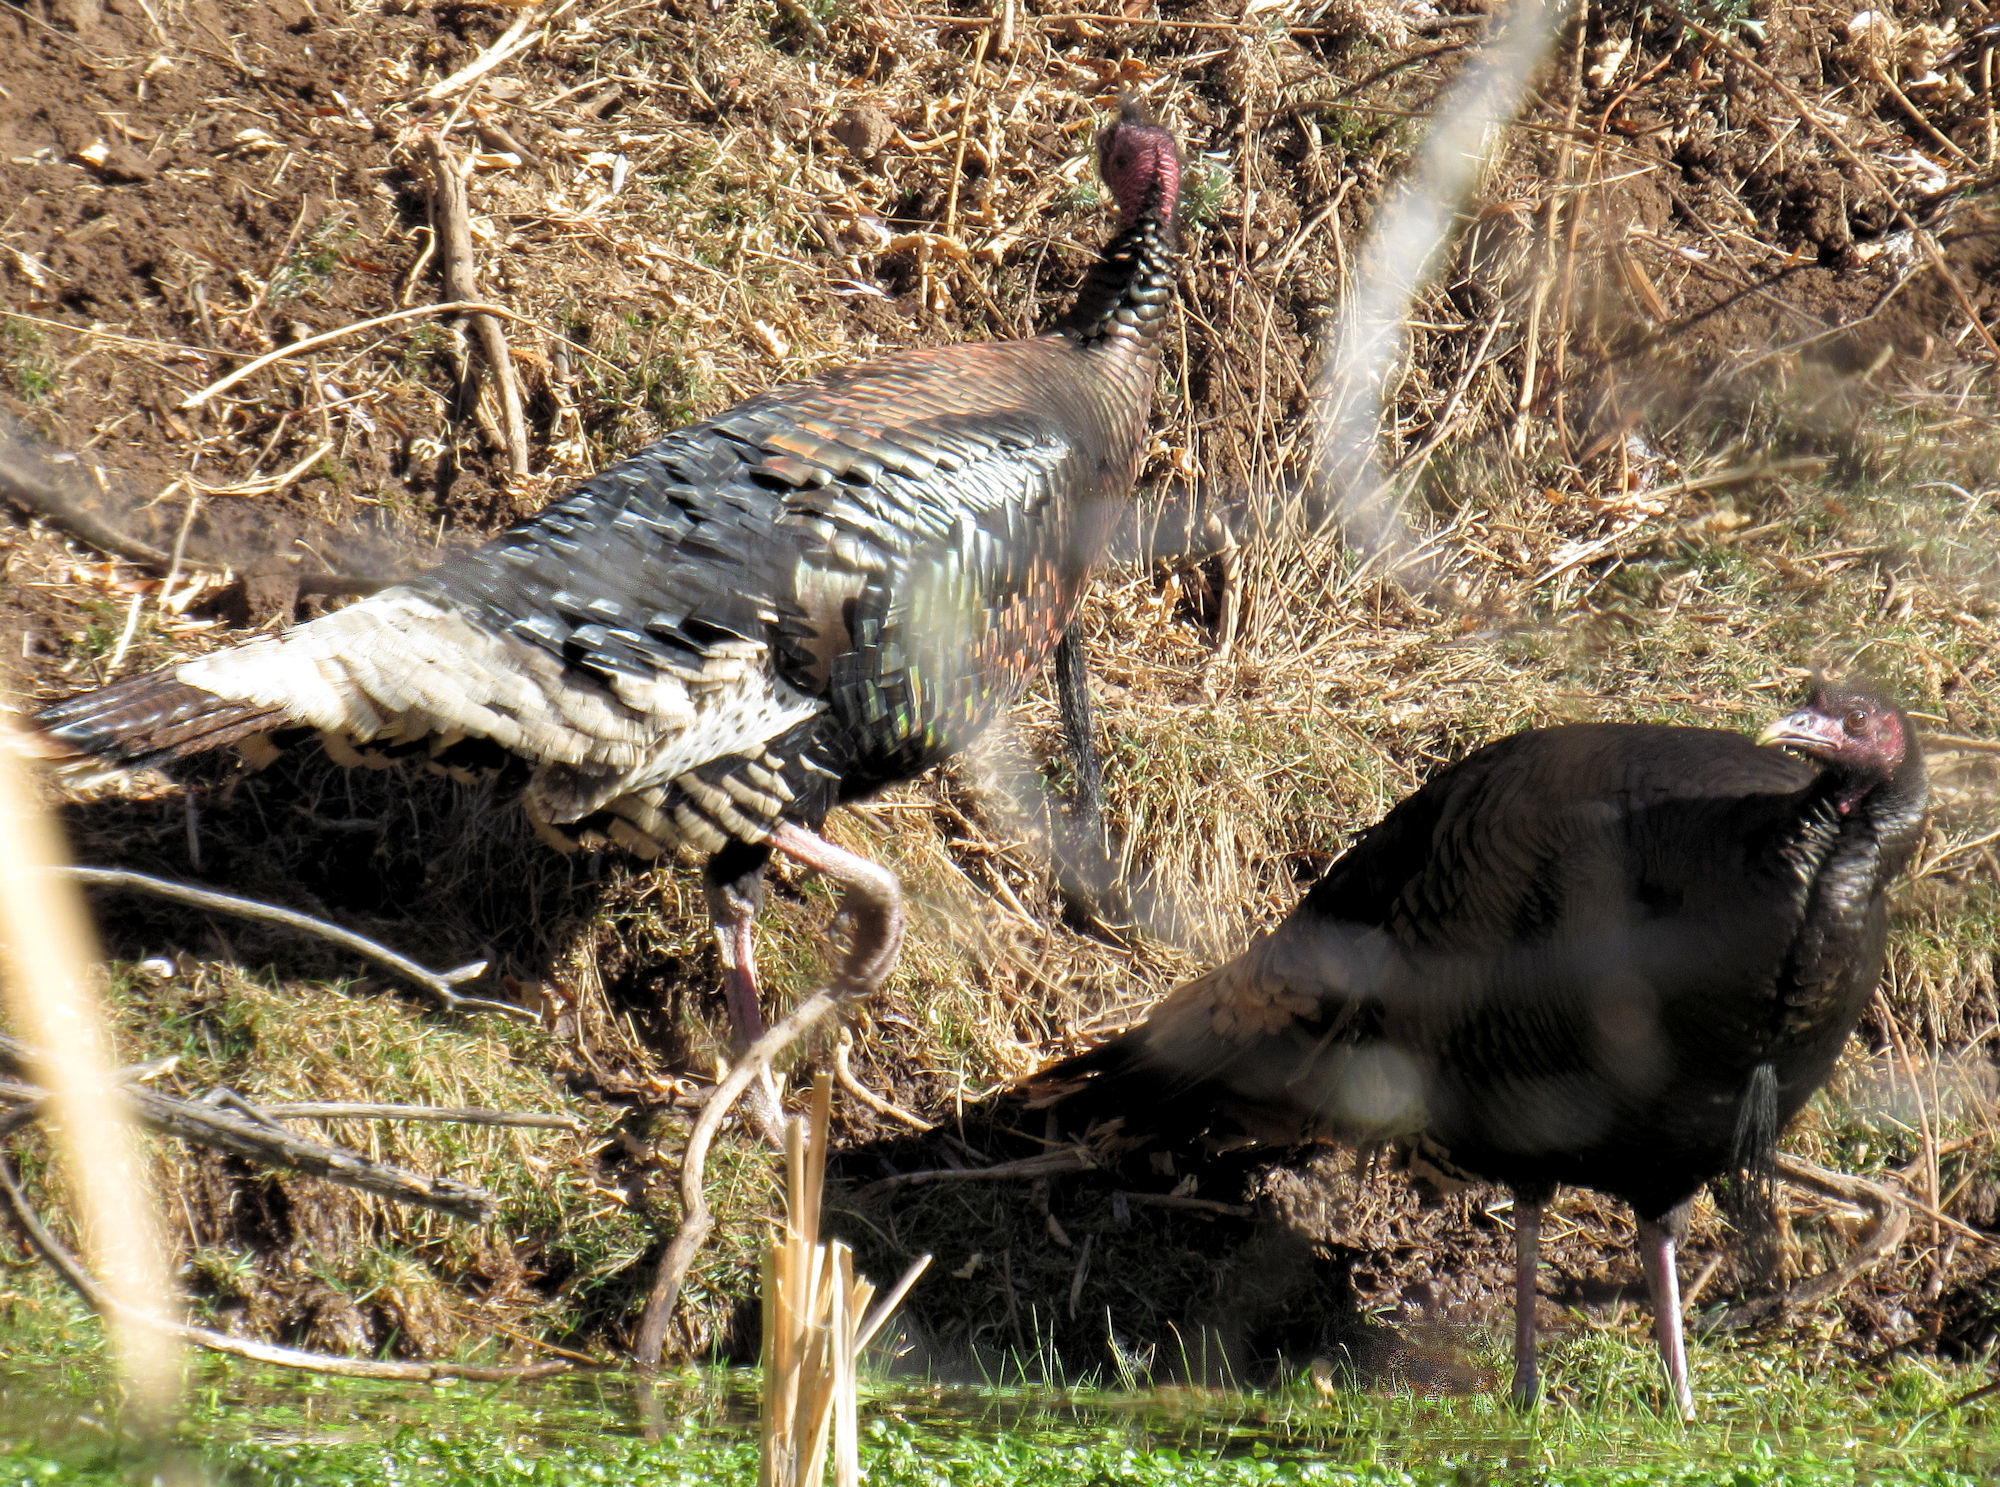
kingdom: Animalia
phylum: Chordata
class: Aves
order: Galliformes
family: Phasianidae
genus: Meleagris
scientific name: Meleagris gallopavo
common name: Wild turkey
